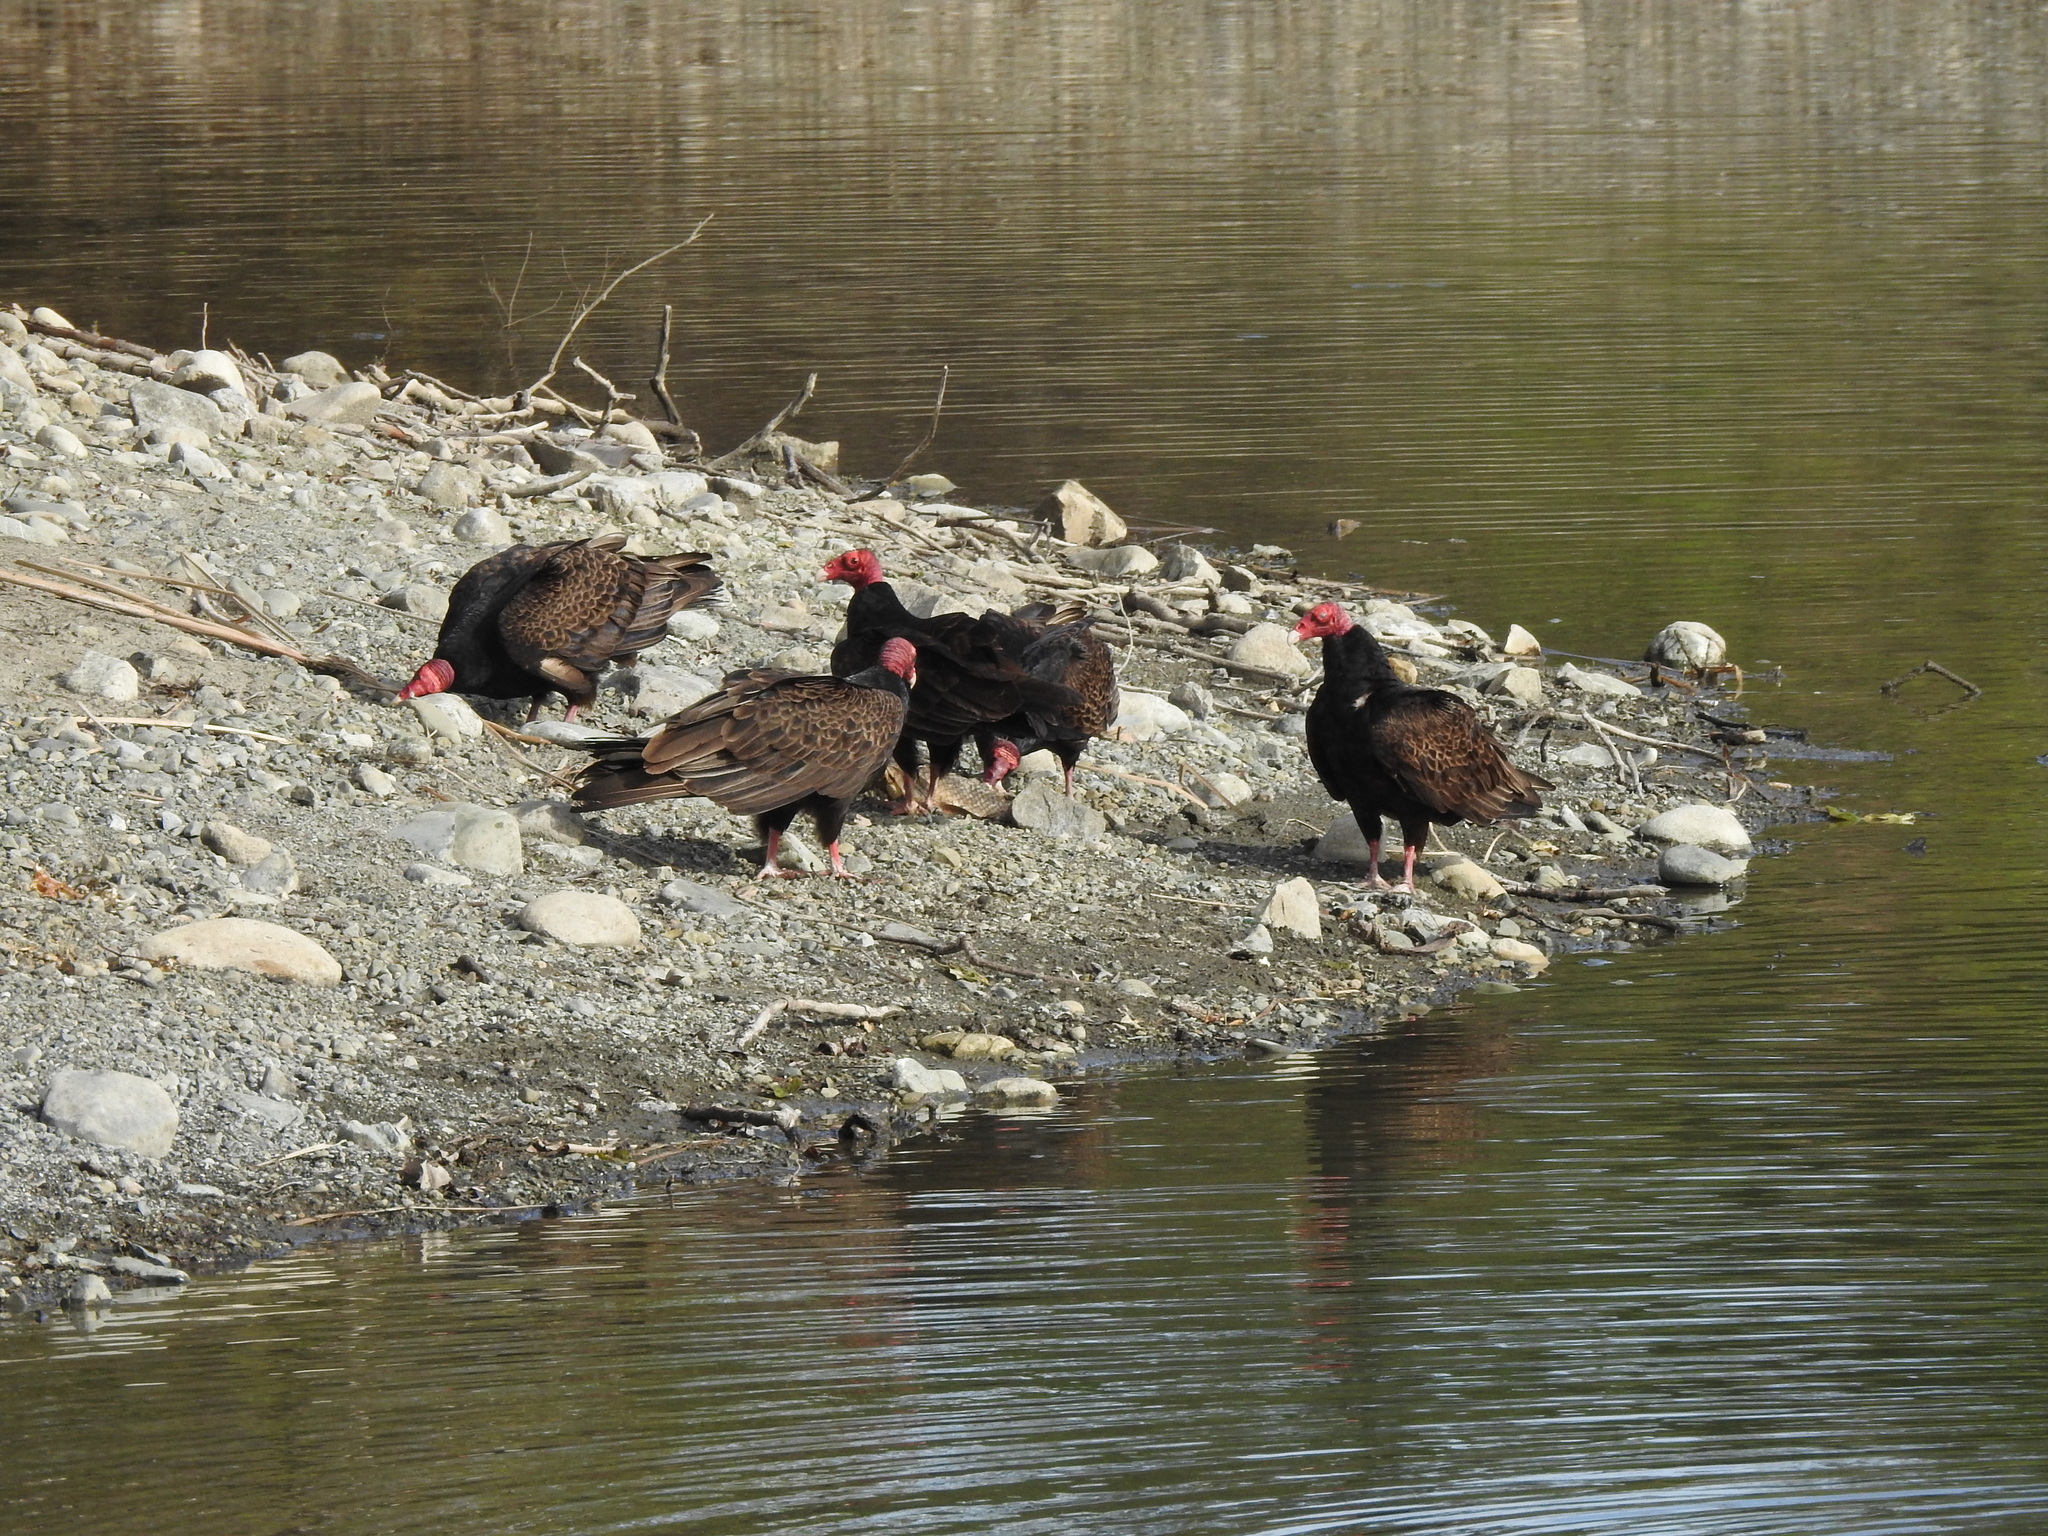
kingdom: Animalia
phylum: Chordata
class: Aves
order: Accipitriformes
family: Cathartidae
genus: Cathartes
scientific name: Cathartes aura
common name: Turkey vulture
